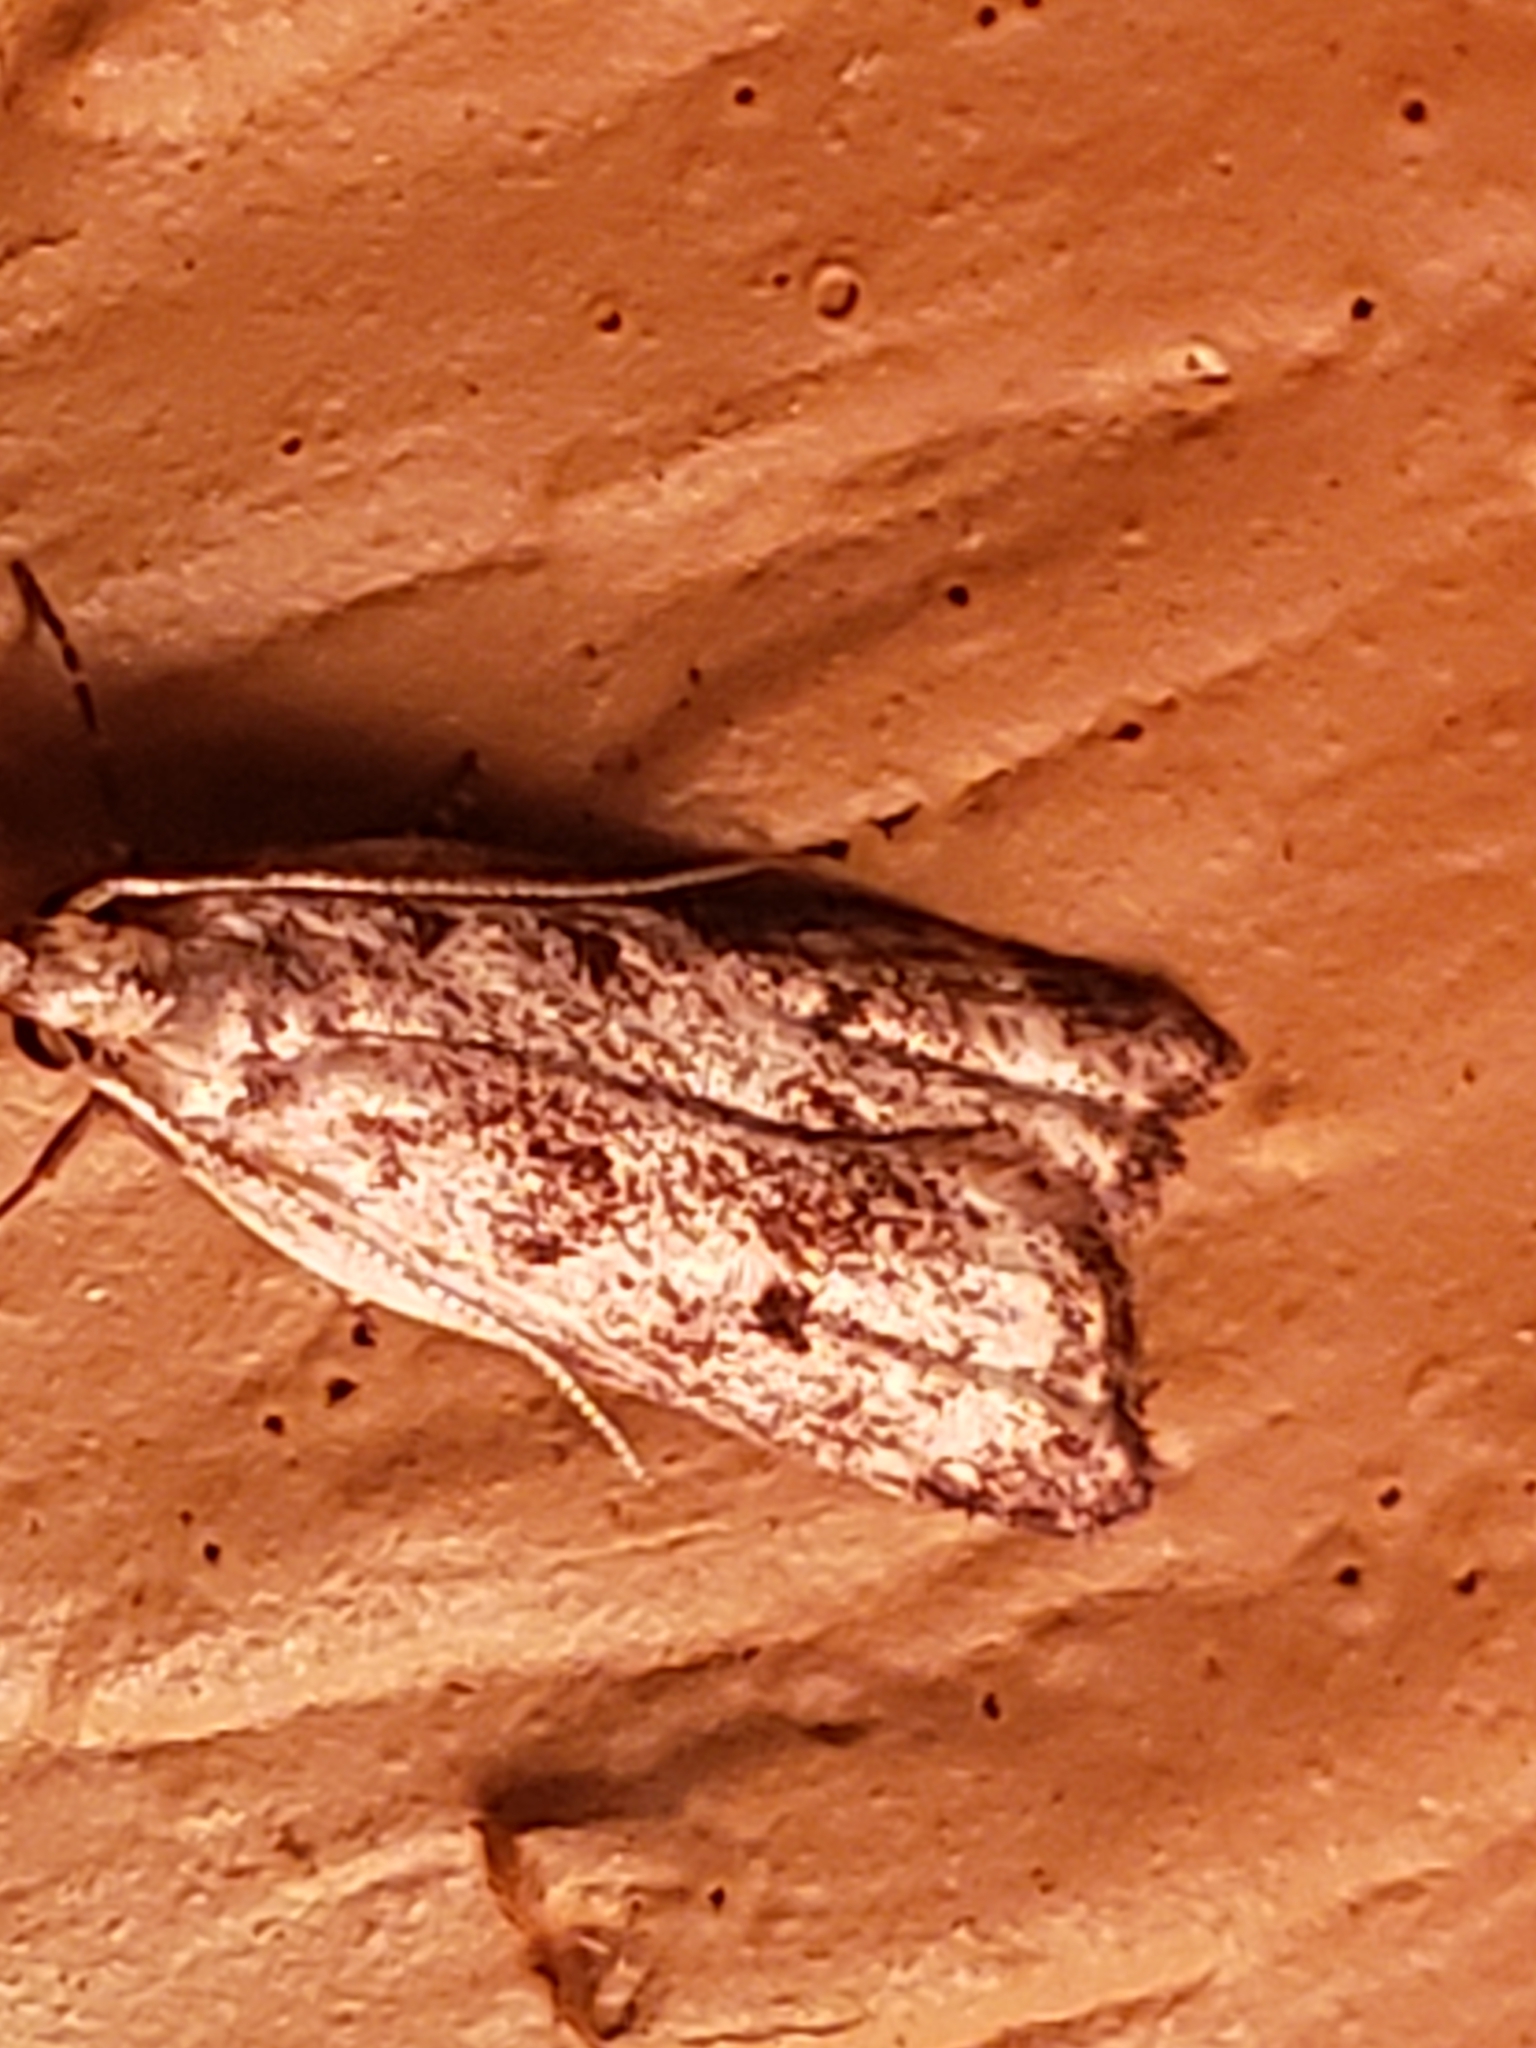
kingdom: Animalia
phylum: Arthropoda
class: Insecta
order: Lepidoptera
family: Gelechiidae
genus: Dichomeris
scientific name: Dichomeris kimballi
